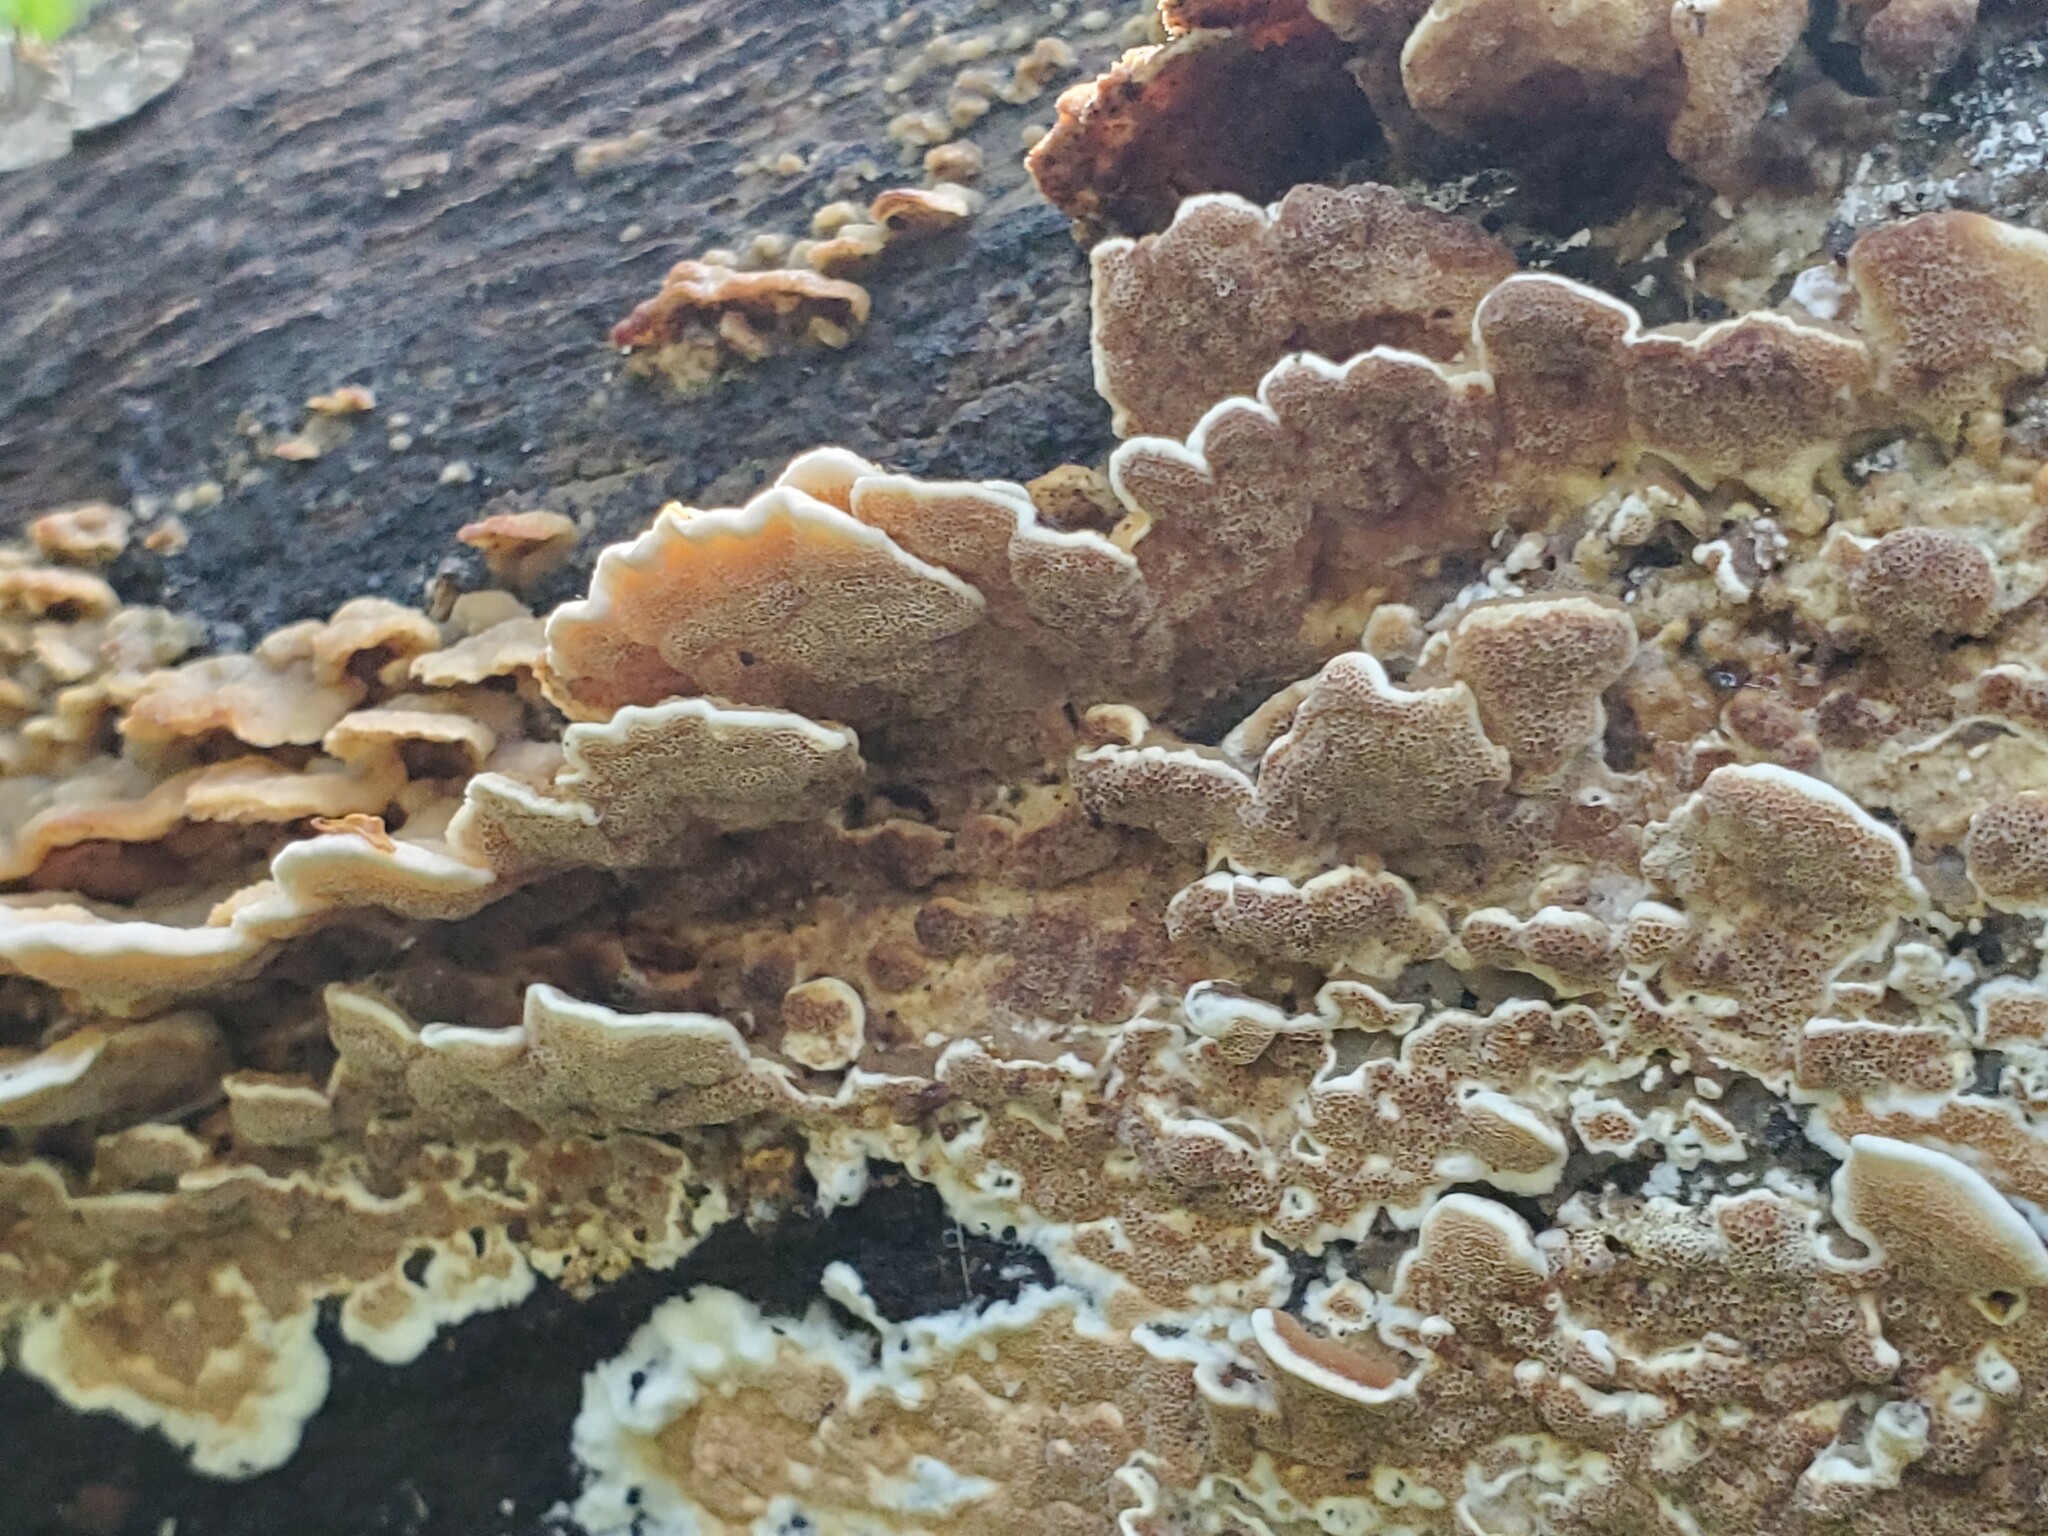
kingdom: Fungi
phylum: Basidiomycota
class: Agaricomycetes
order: Polyporales
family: Irpicaceae
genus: Vitreoporus
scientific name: Vitreoporus dichrous
